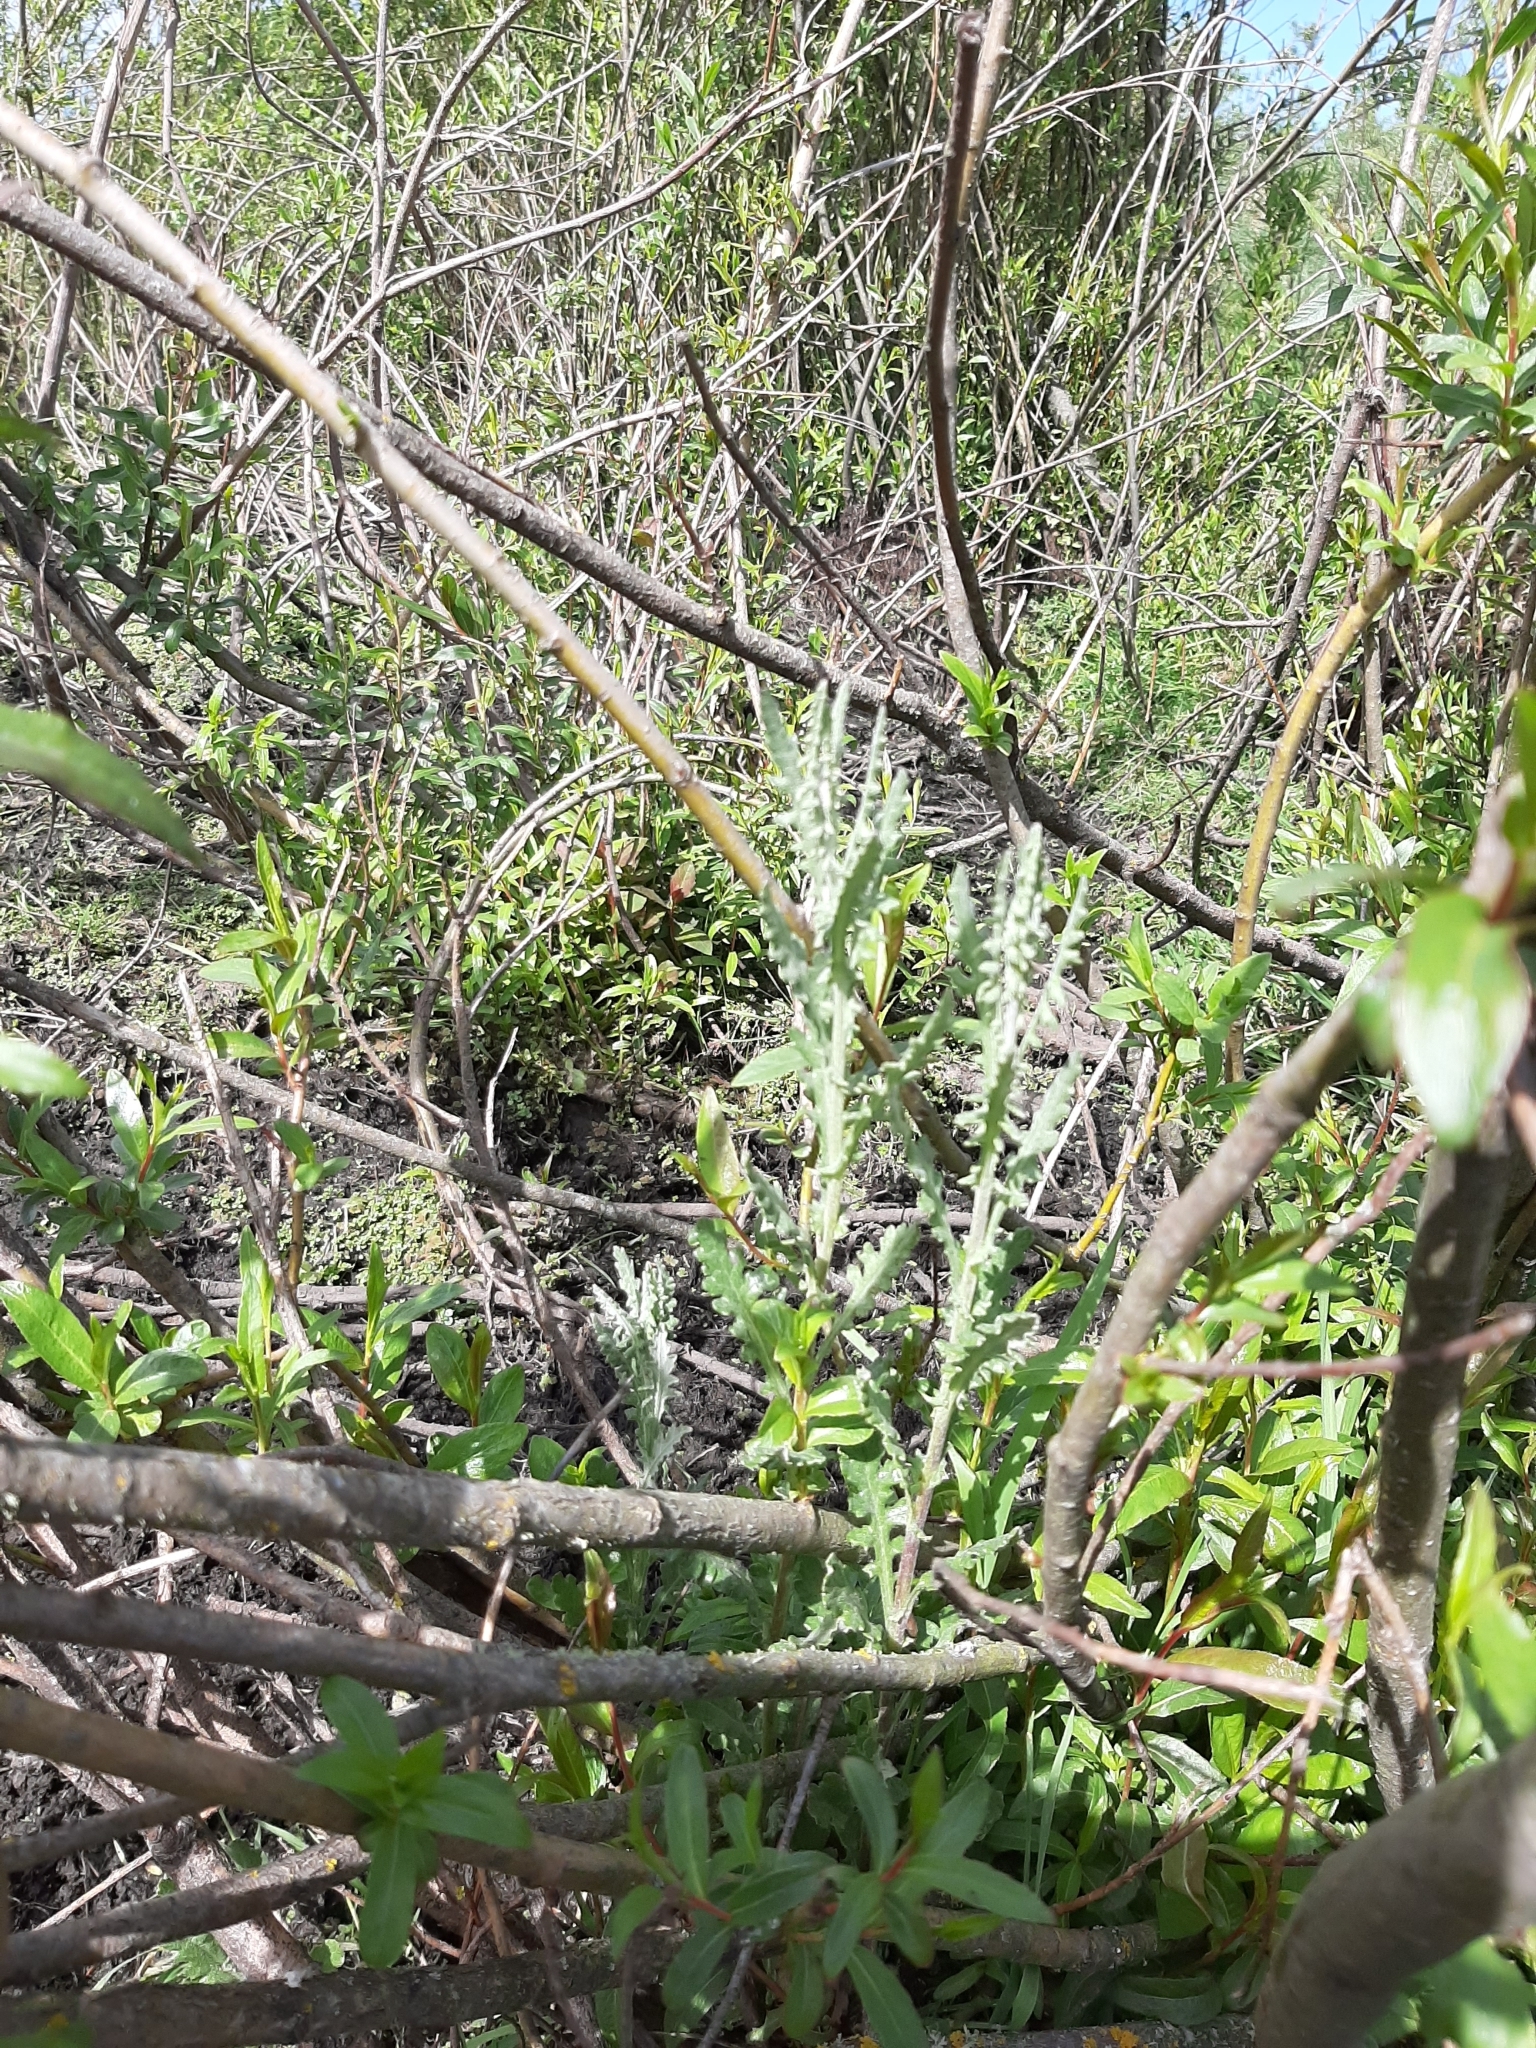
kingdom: Plantae
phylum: Tracheophyta
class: Magnoliopsida
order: Asterales
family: Asteraceae
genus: Senecio
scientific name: Senecio glomeratus
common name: Cutleaf burnweed
